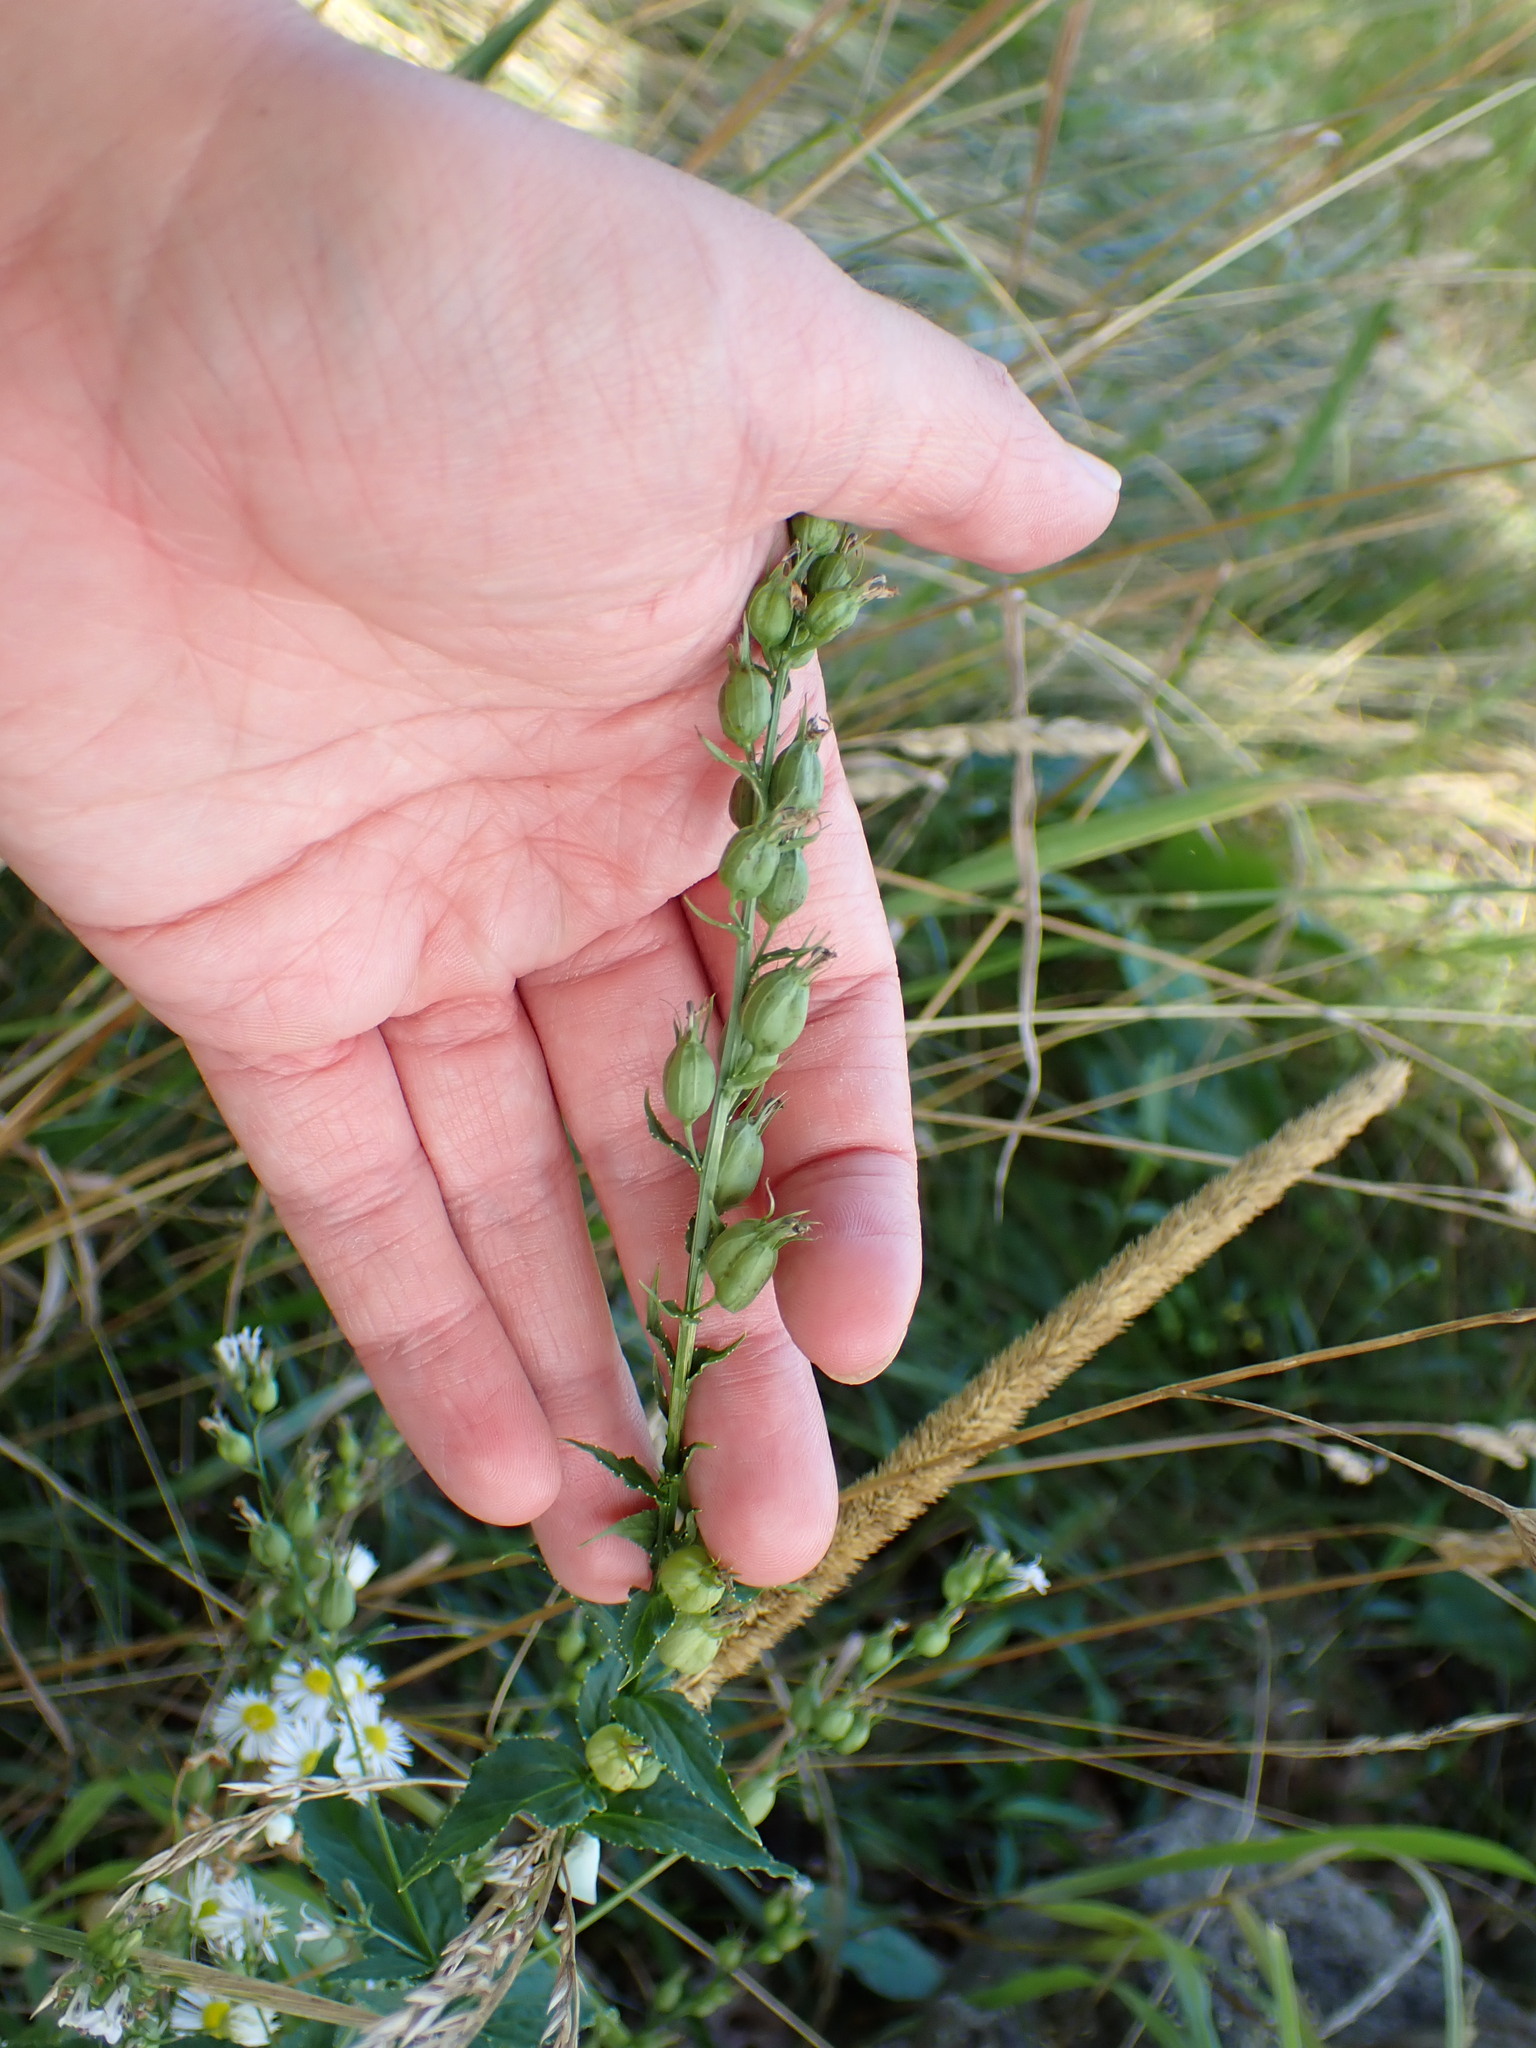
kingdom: Plantae
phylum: Tracheophyta
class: Magnoliopsida
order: Asterales
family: Campanulaceae
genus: Lobelia
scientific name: Lobelia inflata
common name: Indian tobacco
